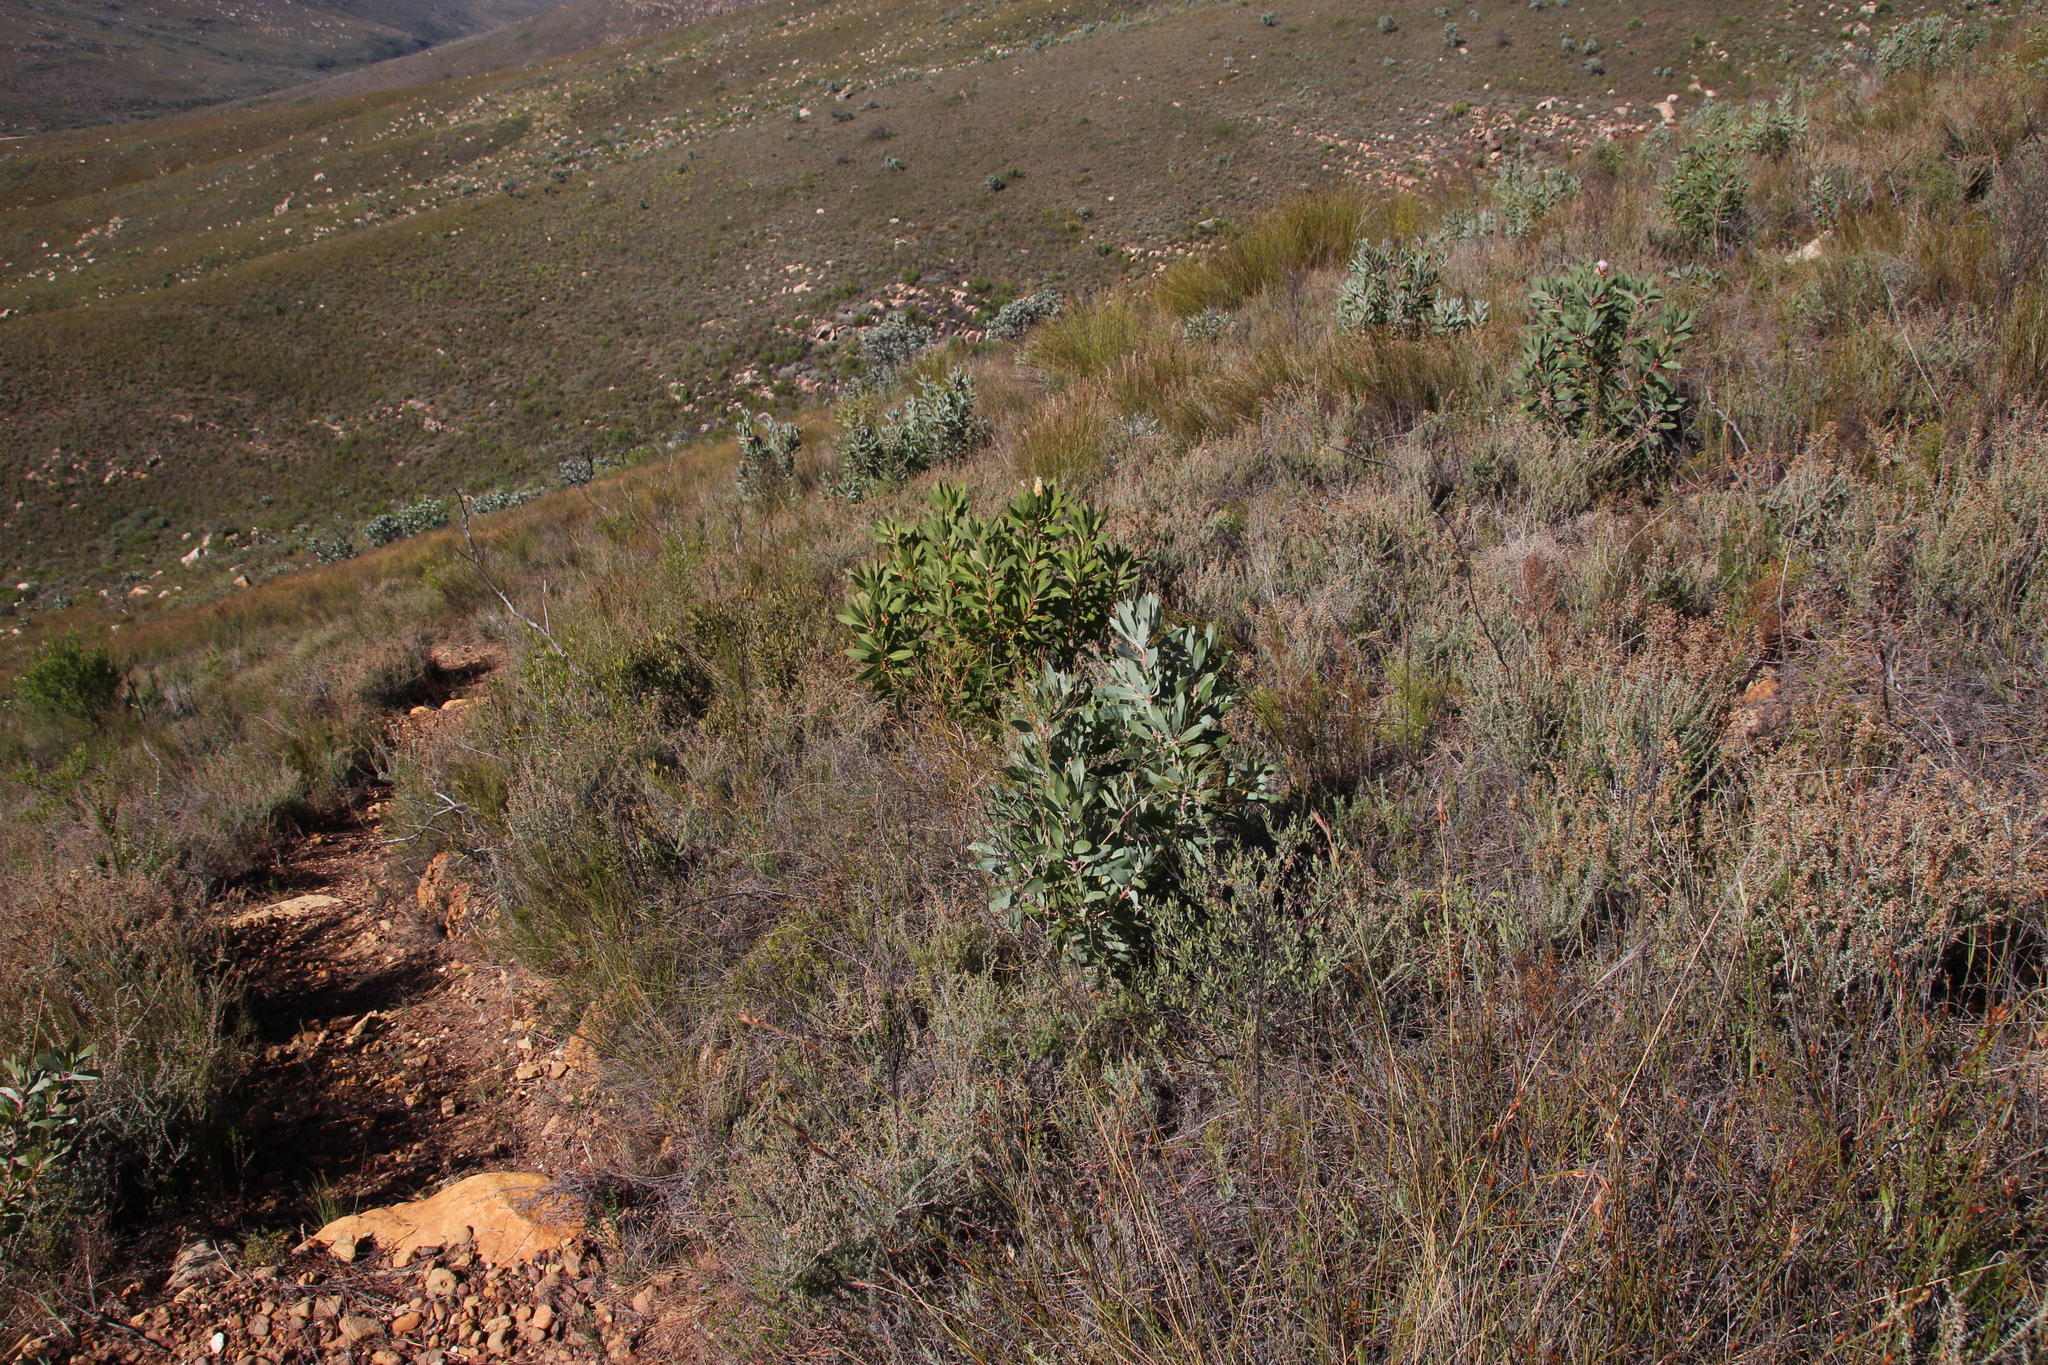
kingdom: Plantae
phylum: Tracheophyta
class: Magnoliopsida
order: Proteales
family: Proteaceae
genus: Protea
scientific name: Protea laurifolia
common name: Grey-leaf sugarbsh
